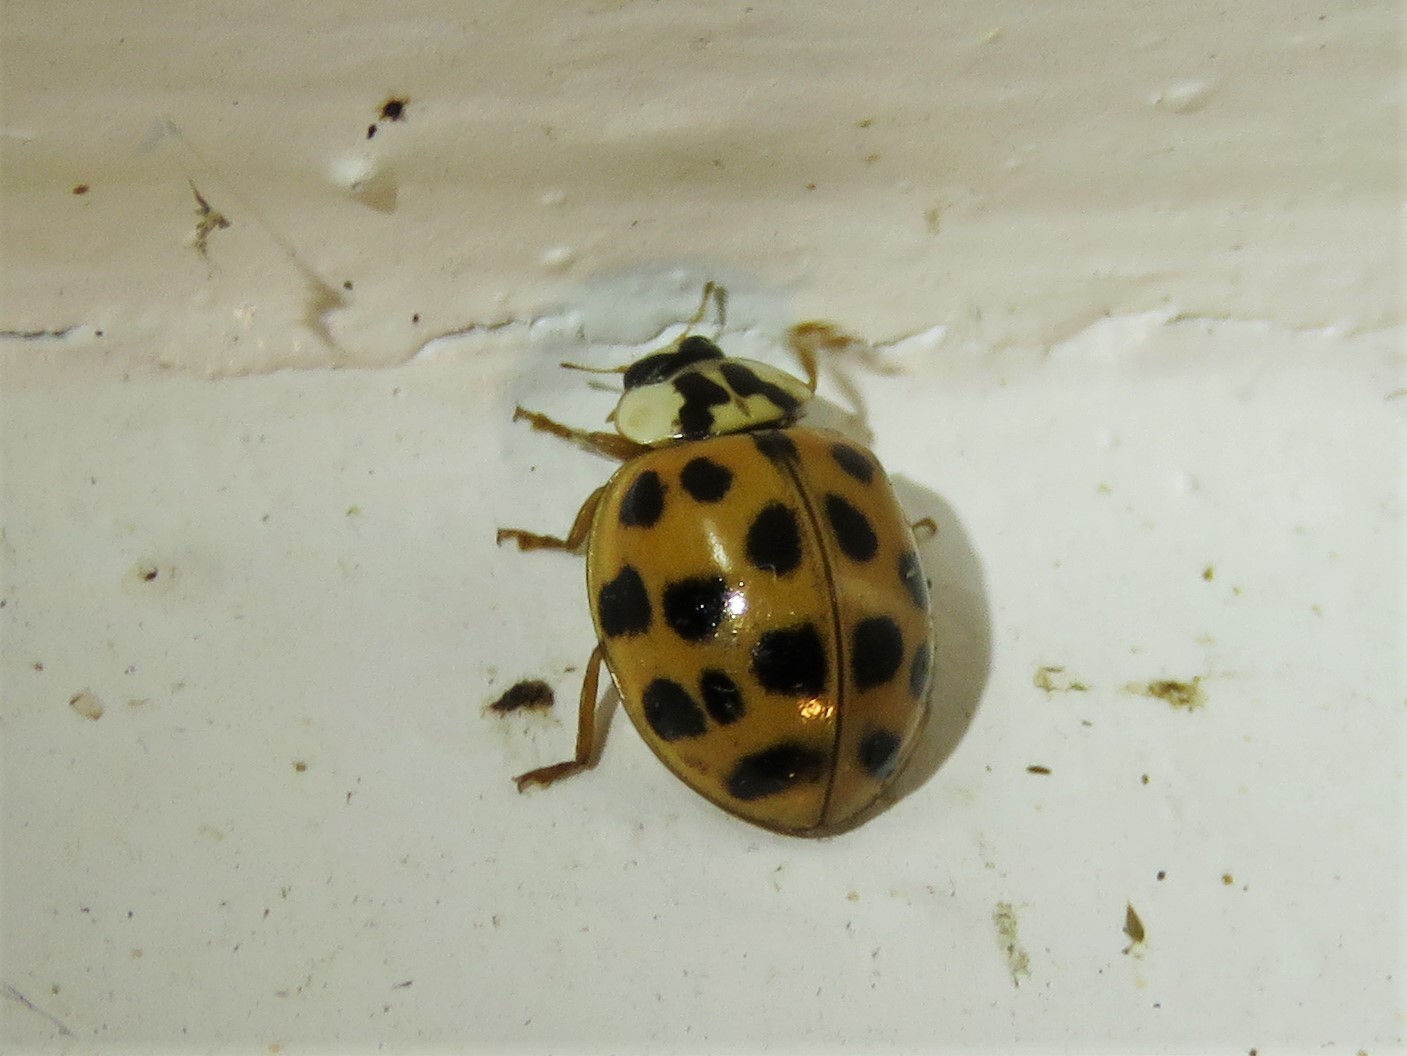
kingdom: Animalia
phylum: Arthropoda
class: Insecta
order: Coleoptera
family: Coccinellidae
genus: Harmonia
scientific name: Harmonia axyridis
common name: Harlequin ladybird
